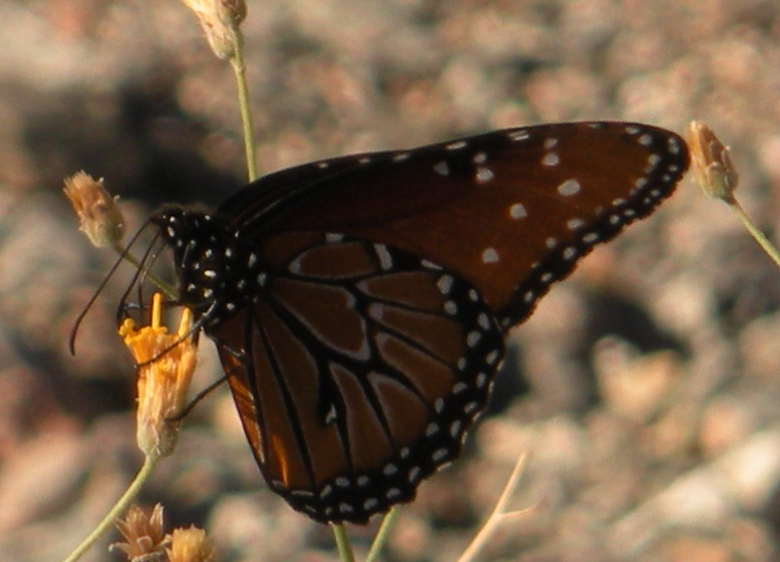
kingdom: Animalia
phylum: Arthropoda
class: Insecta
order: Lepidoptera
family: Nymphalidae
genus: Danaus
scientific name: Danaus gilippus
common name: Queen
